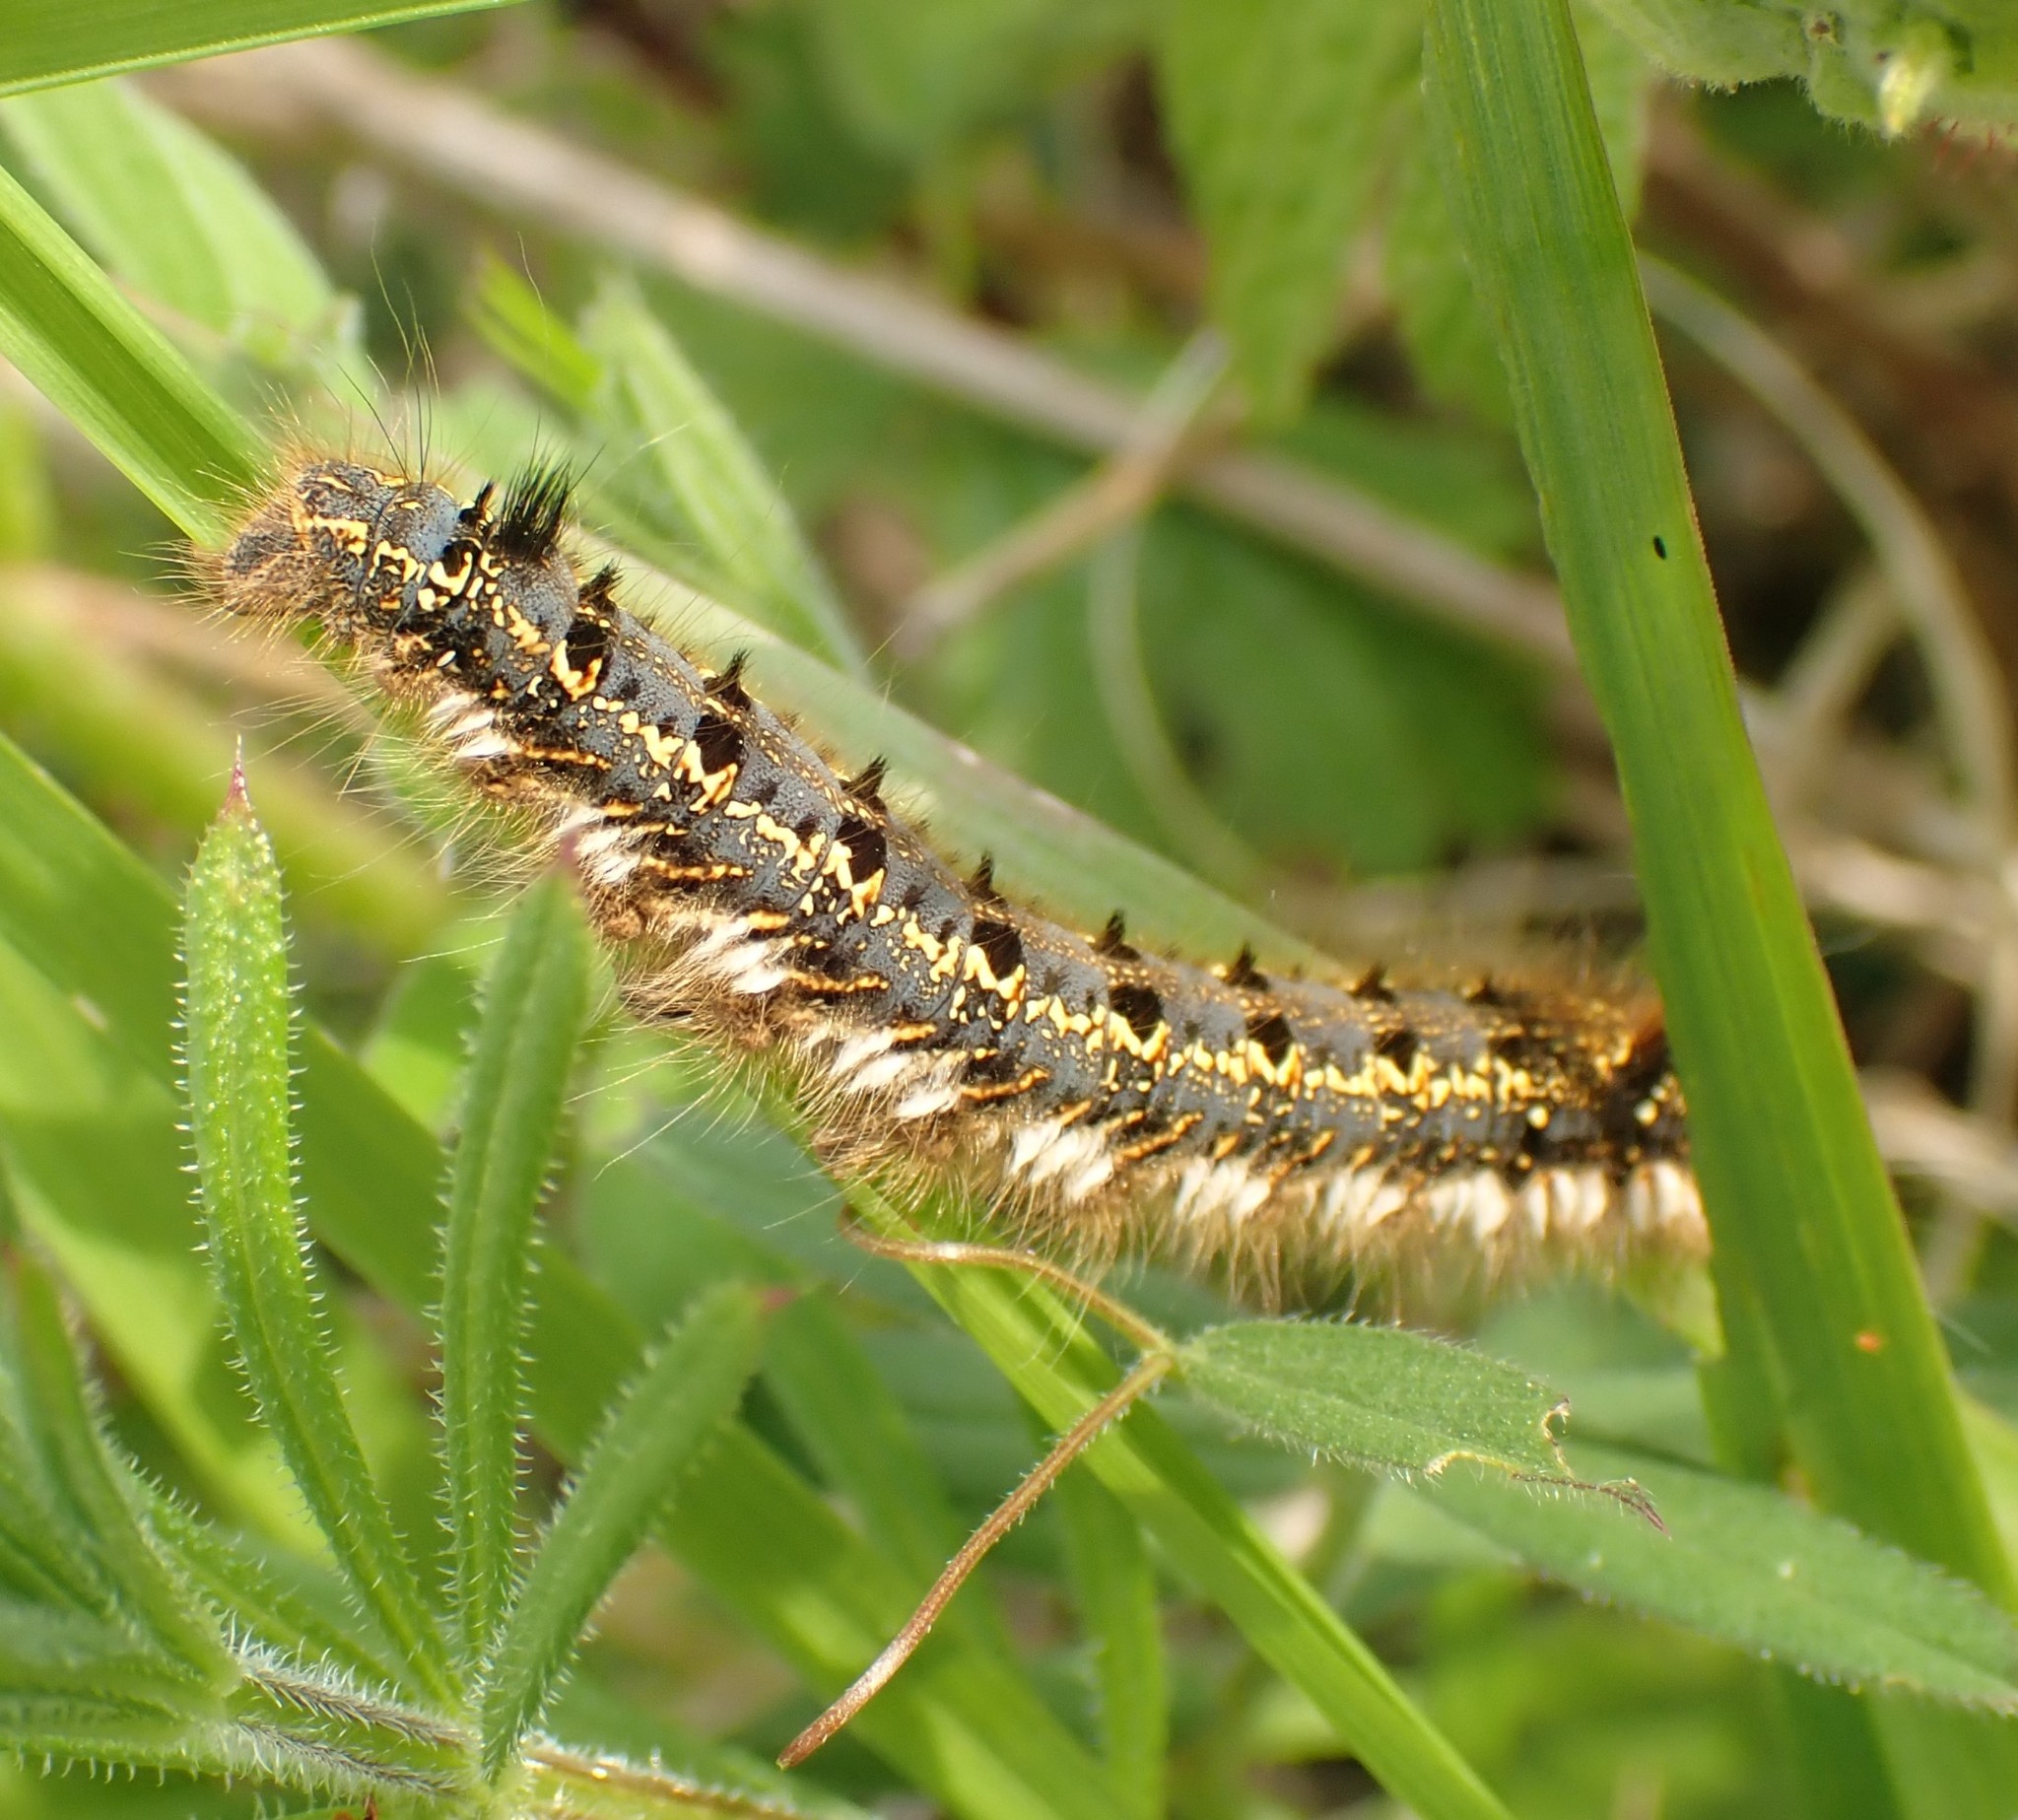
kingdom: Animalia
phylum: Arthropoda
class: Insecta
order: Lepidoptera
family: Lasiocampidae
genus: Euthrix
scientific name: Euthrix potatoria
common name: Drinker
